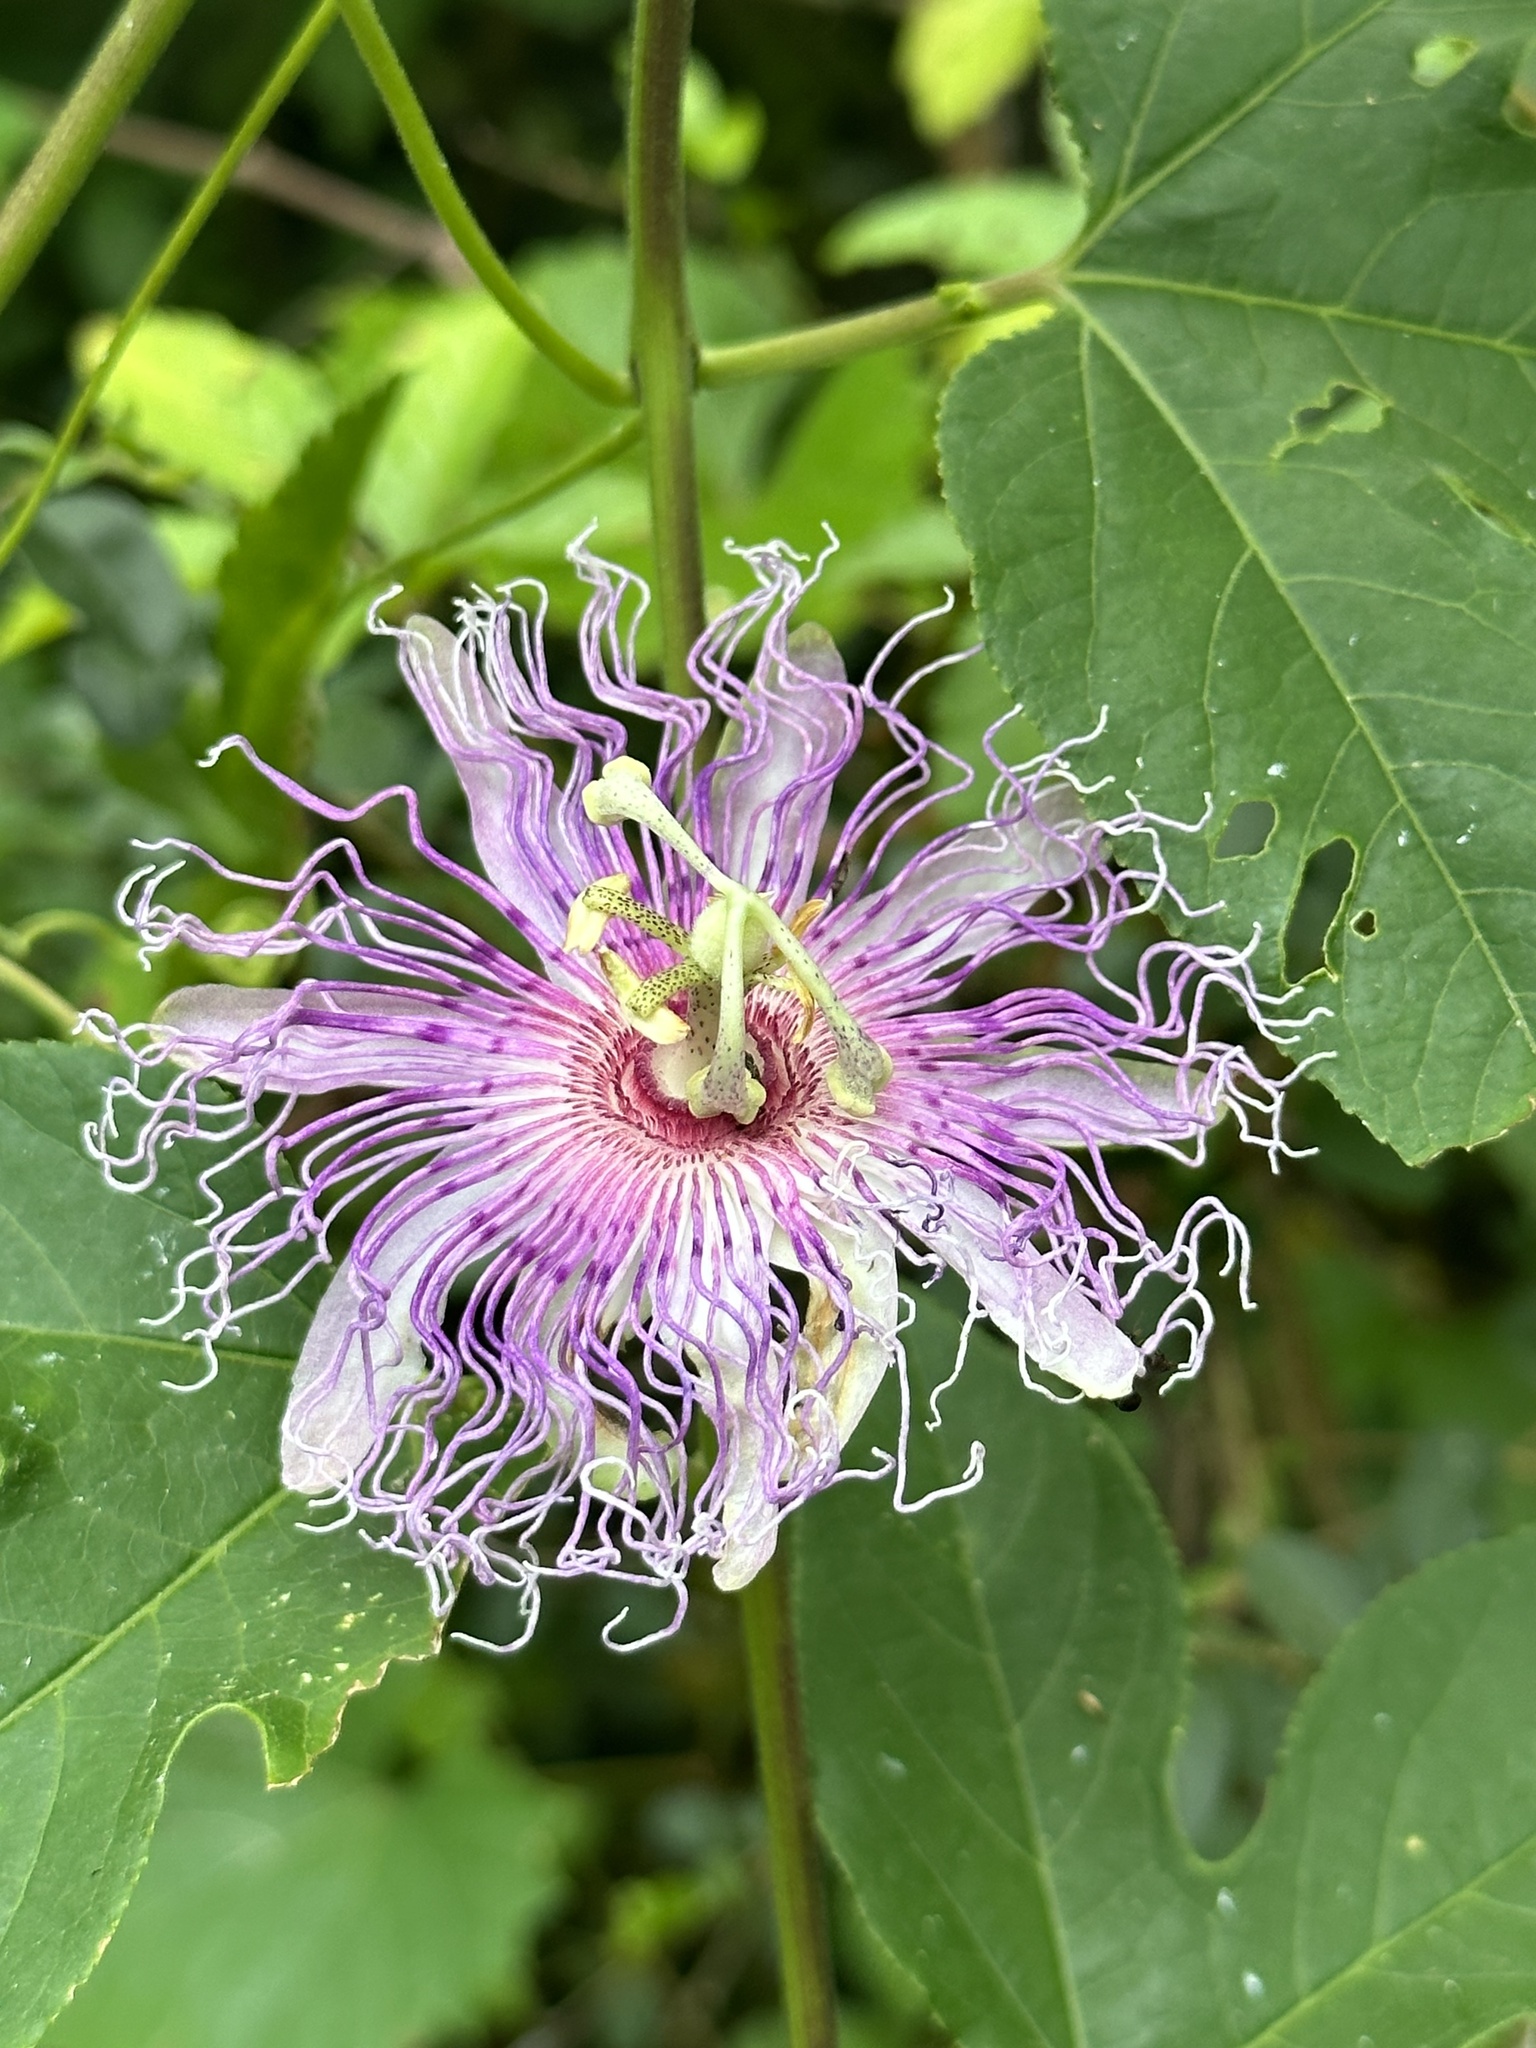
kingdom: Plantae
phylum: Tracheophyta
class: Magnoliopsida
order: Malpighiales
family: Passifloraceae
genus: Passiflora
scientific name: Passiflora incarnata
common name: Apricot-vine
